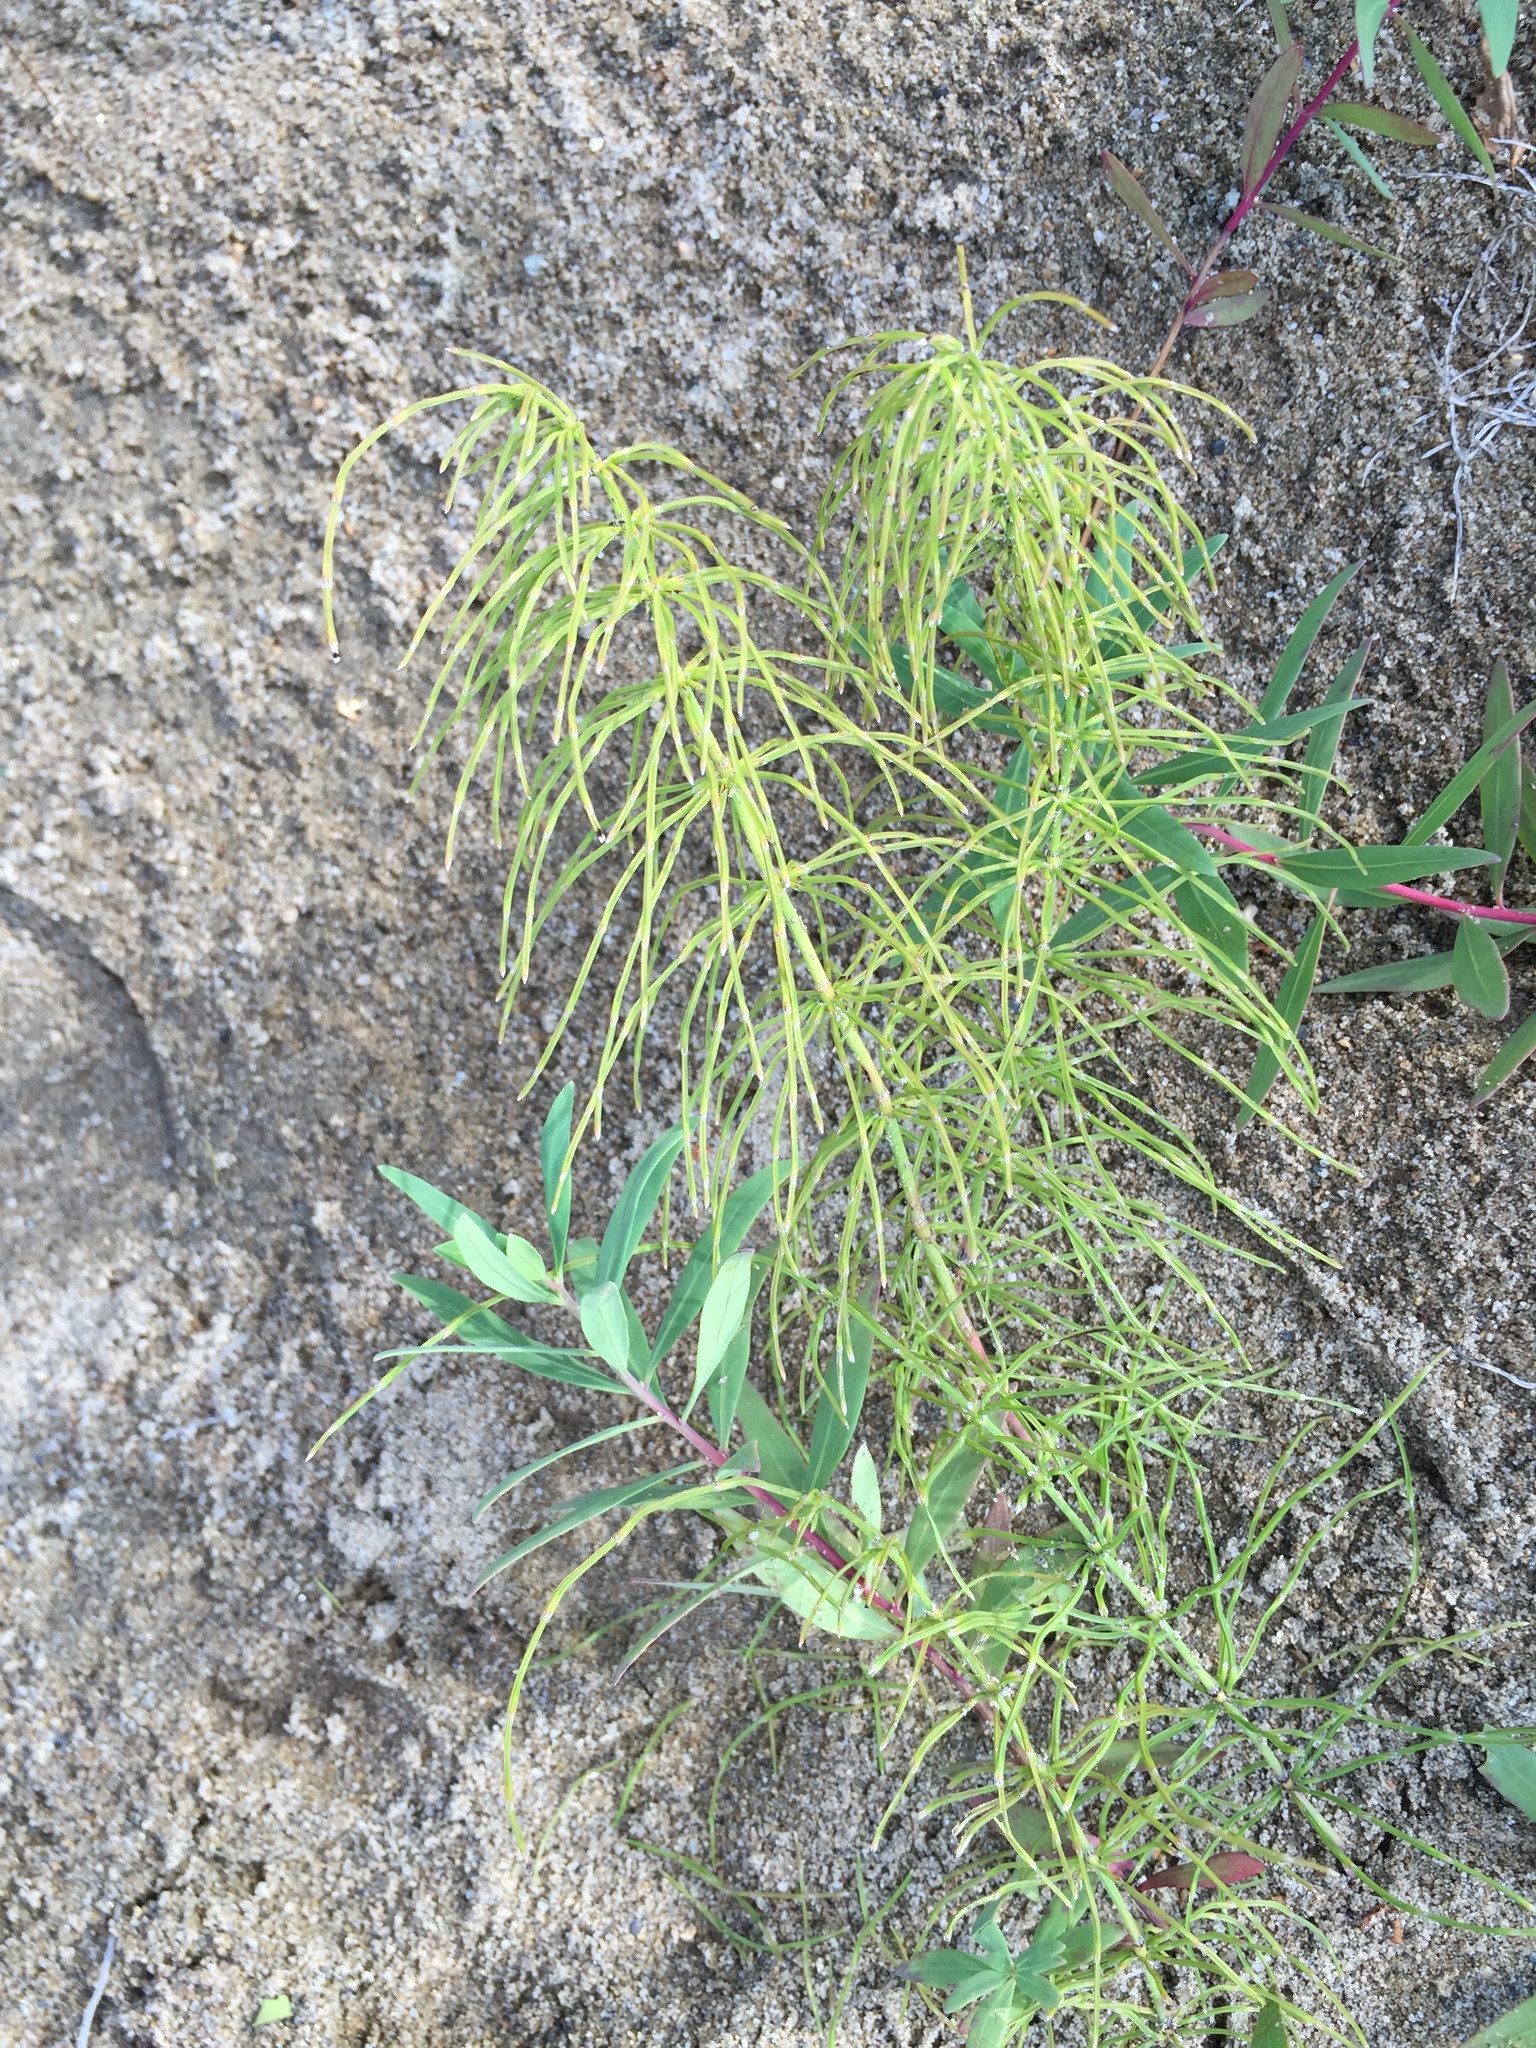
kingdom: Plantae
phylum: Tracheophyta
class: Polypodiopsida
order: Equisetales
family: Equisetaceae
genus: Equisetum
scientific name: Equisetum arvense
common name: Field horsetail
